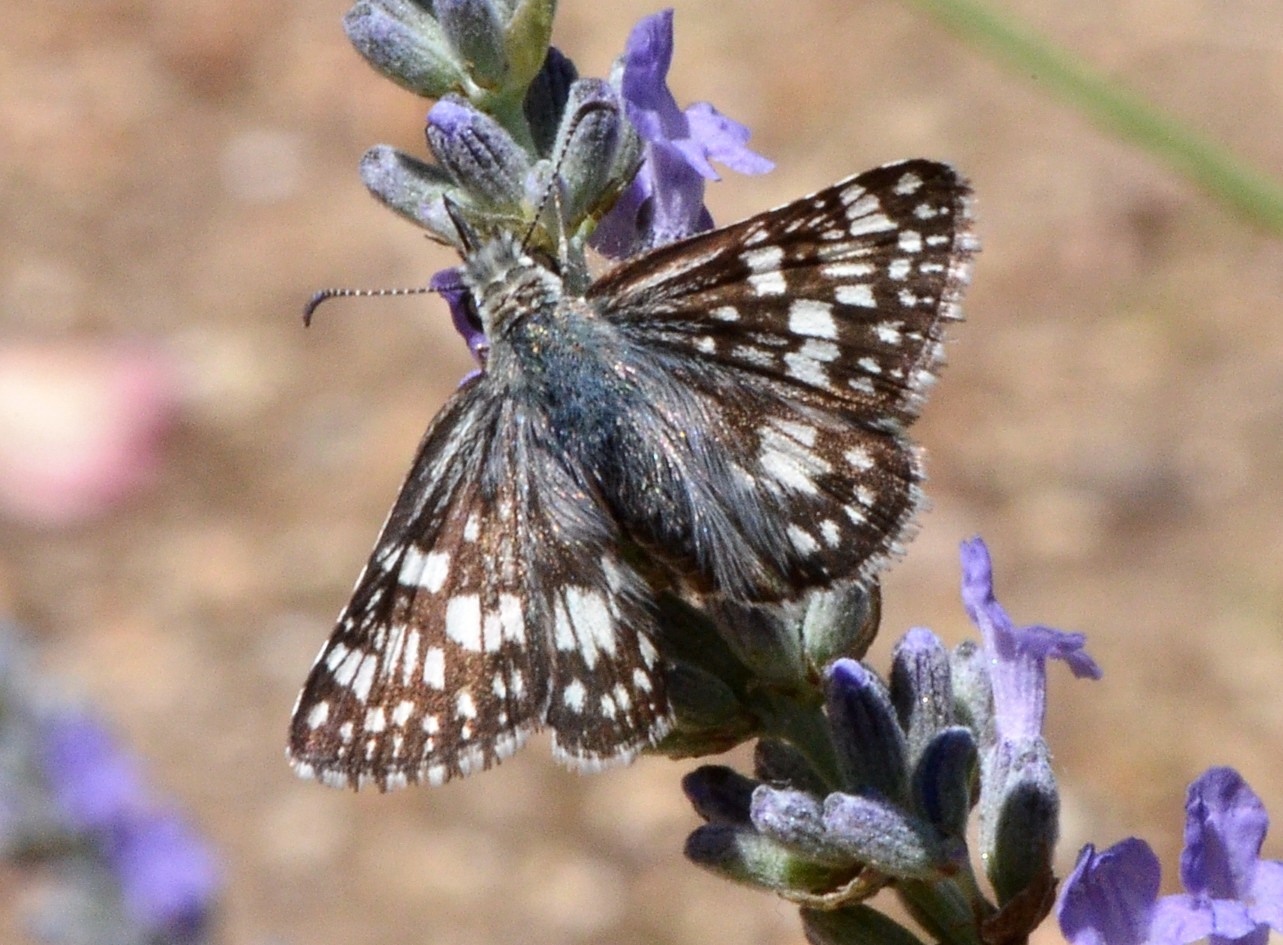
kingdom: Animalia
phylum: Arthropoda
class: Insecta
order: Lepidoptera
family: Hesperiidae
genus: Burnsius
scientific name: Burnsius communis
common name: Common checkered-skipper
